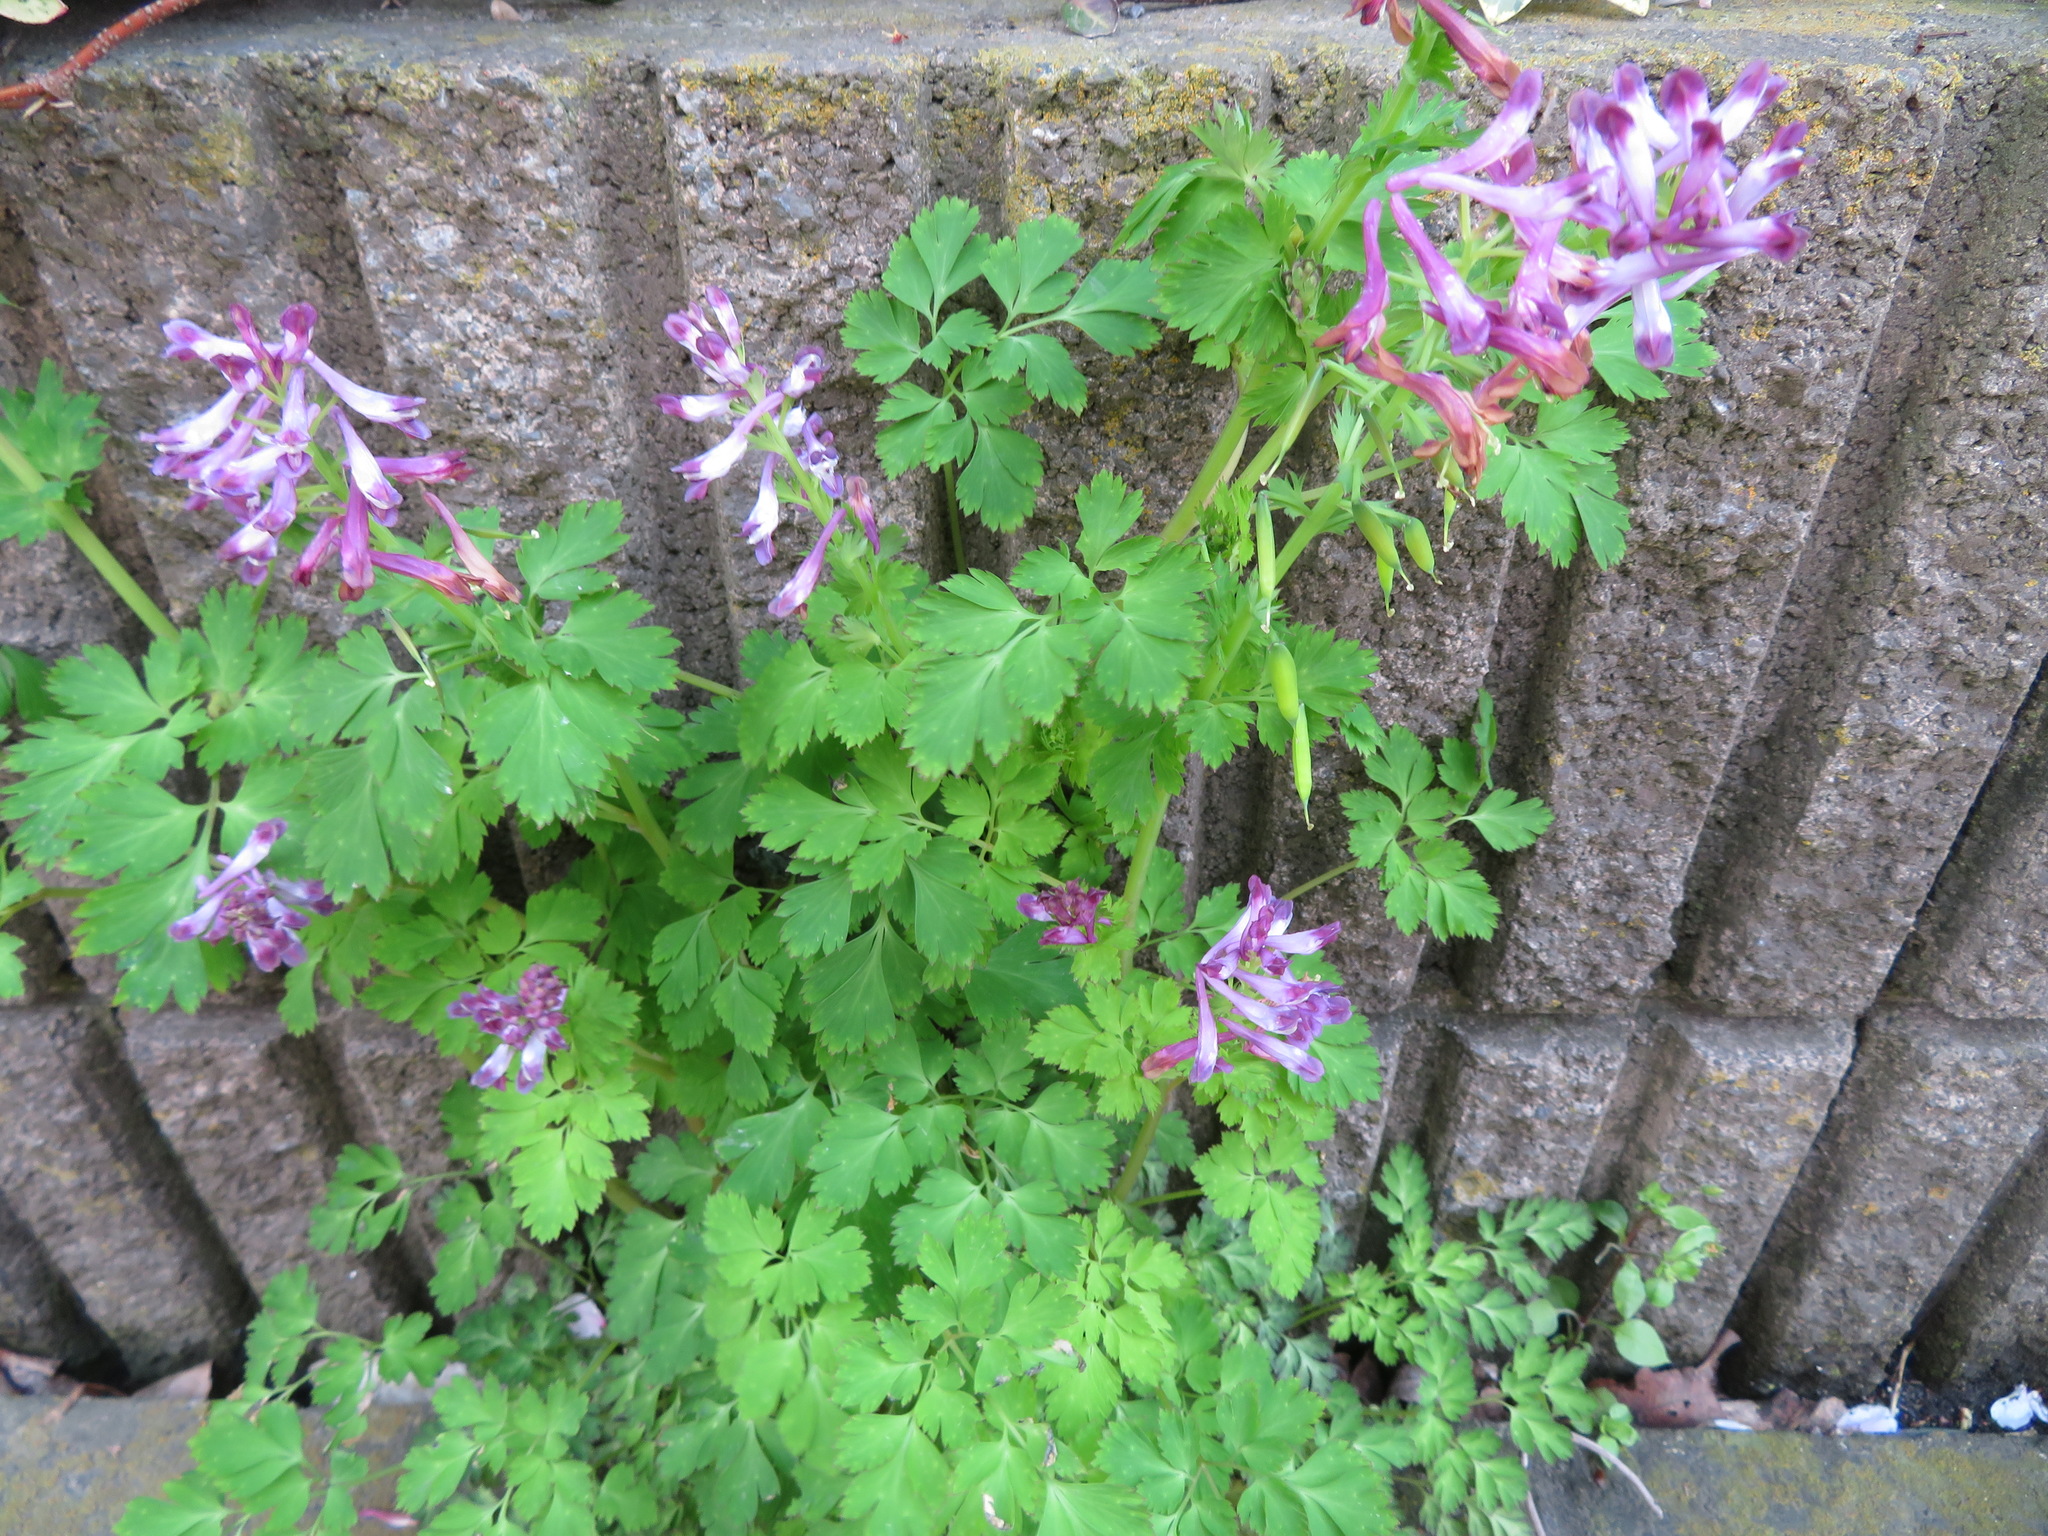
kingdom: Plantae
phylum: Tracheophyta
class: Magnoliopsida
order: Ranunculales
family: Papaveraceae
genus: Corydalis
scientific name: Corydalis incisa
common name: Incised fumewort
